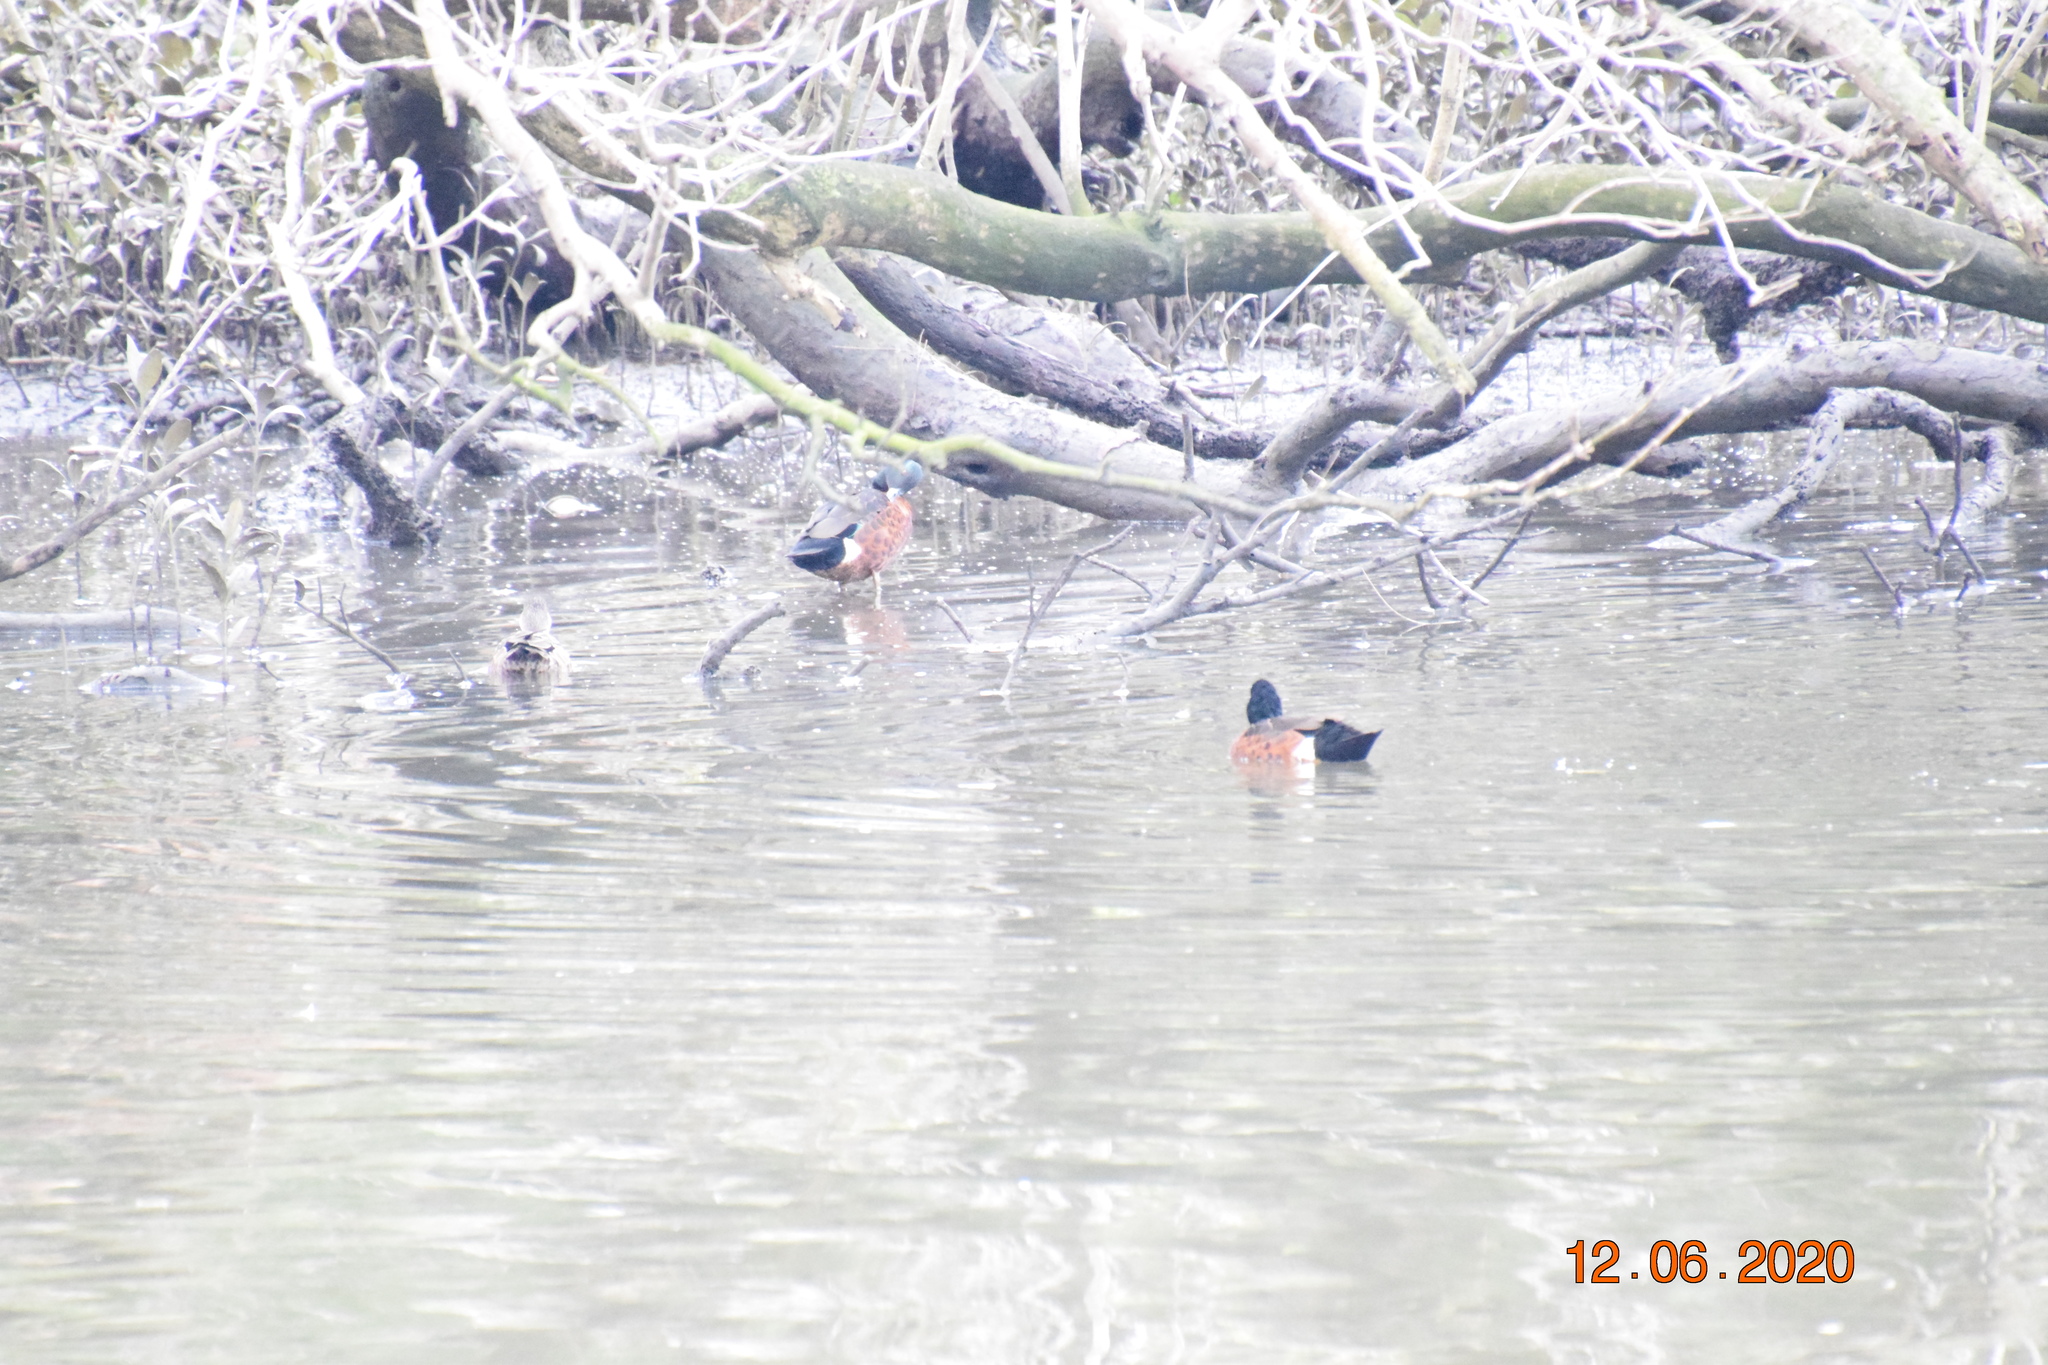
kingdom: Animalia
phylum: Chordata
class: Aves
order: Anseriformes
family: Anatidae
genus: Anas
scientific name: Anas castanea
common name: Chestnut teal
